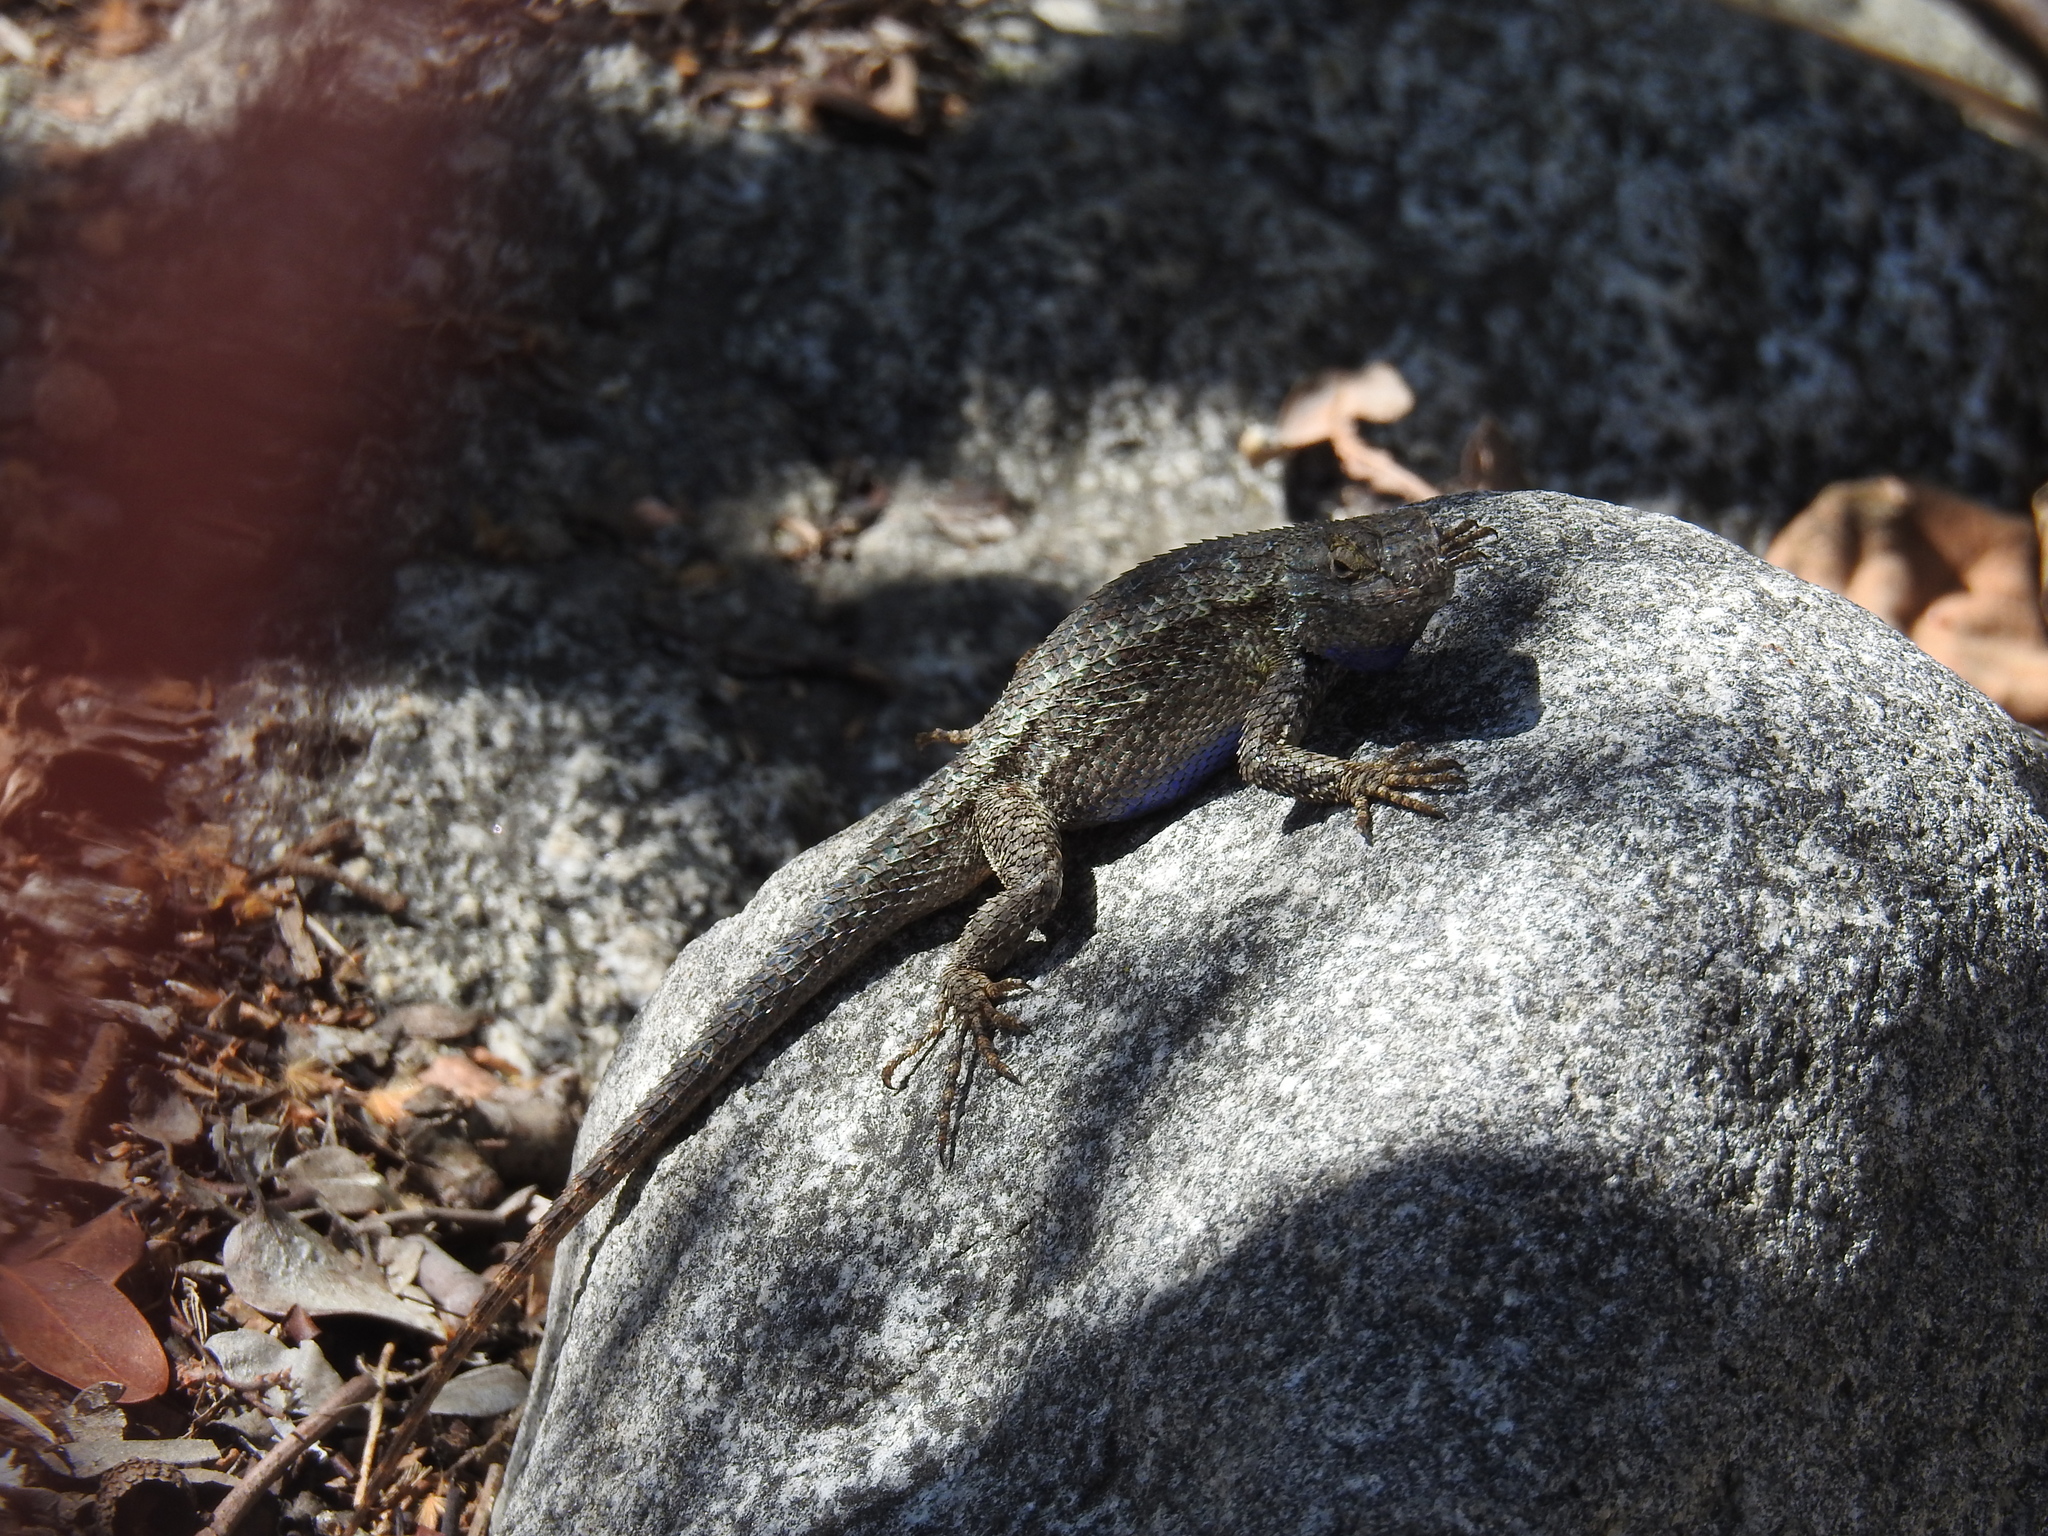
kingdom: Animalia
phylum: Chordata
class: Squamata
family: Phrynosomatidae
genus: Sceloporus
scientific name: Sceloporus occidentalis
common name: Western fence lizard
